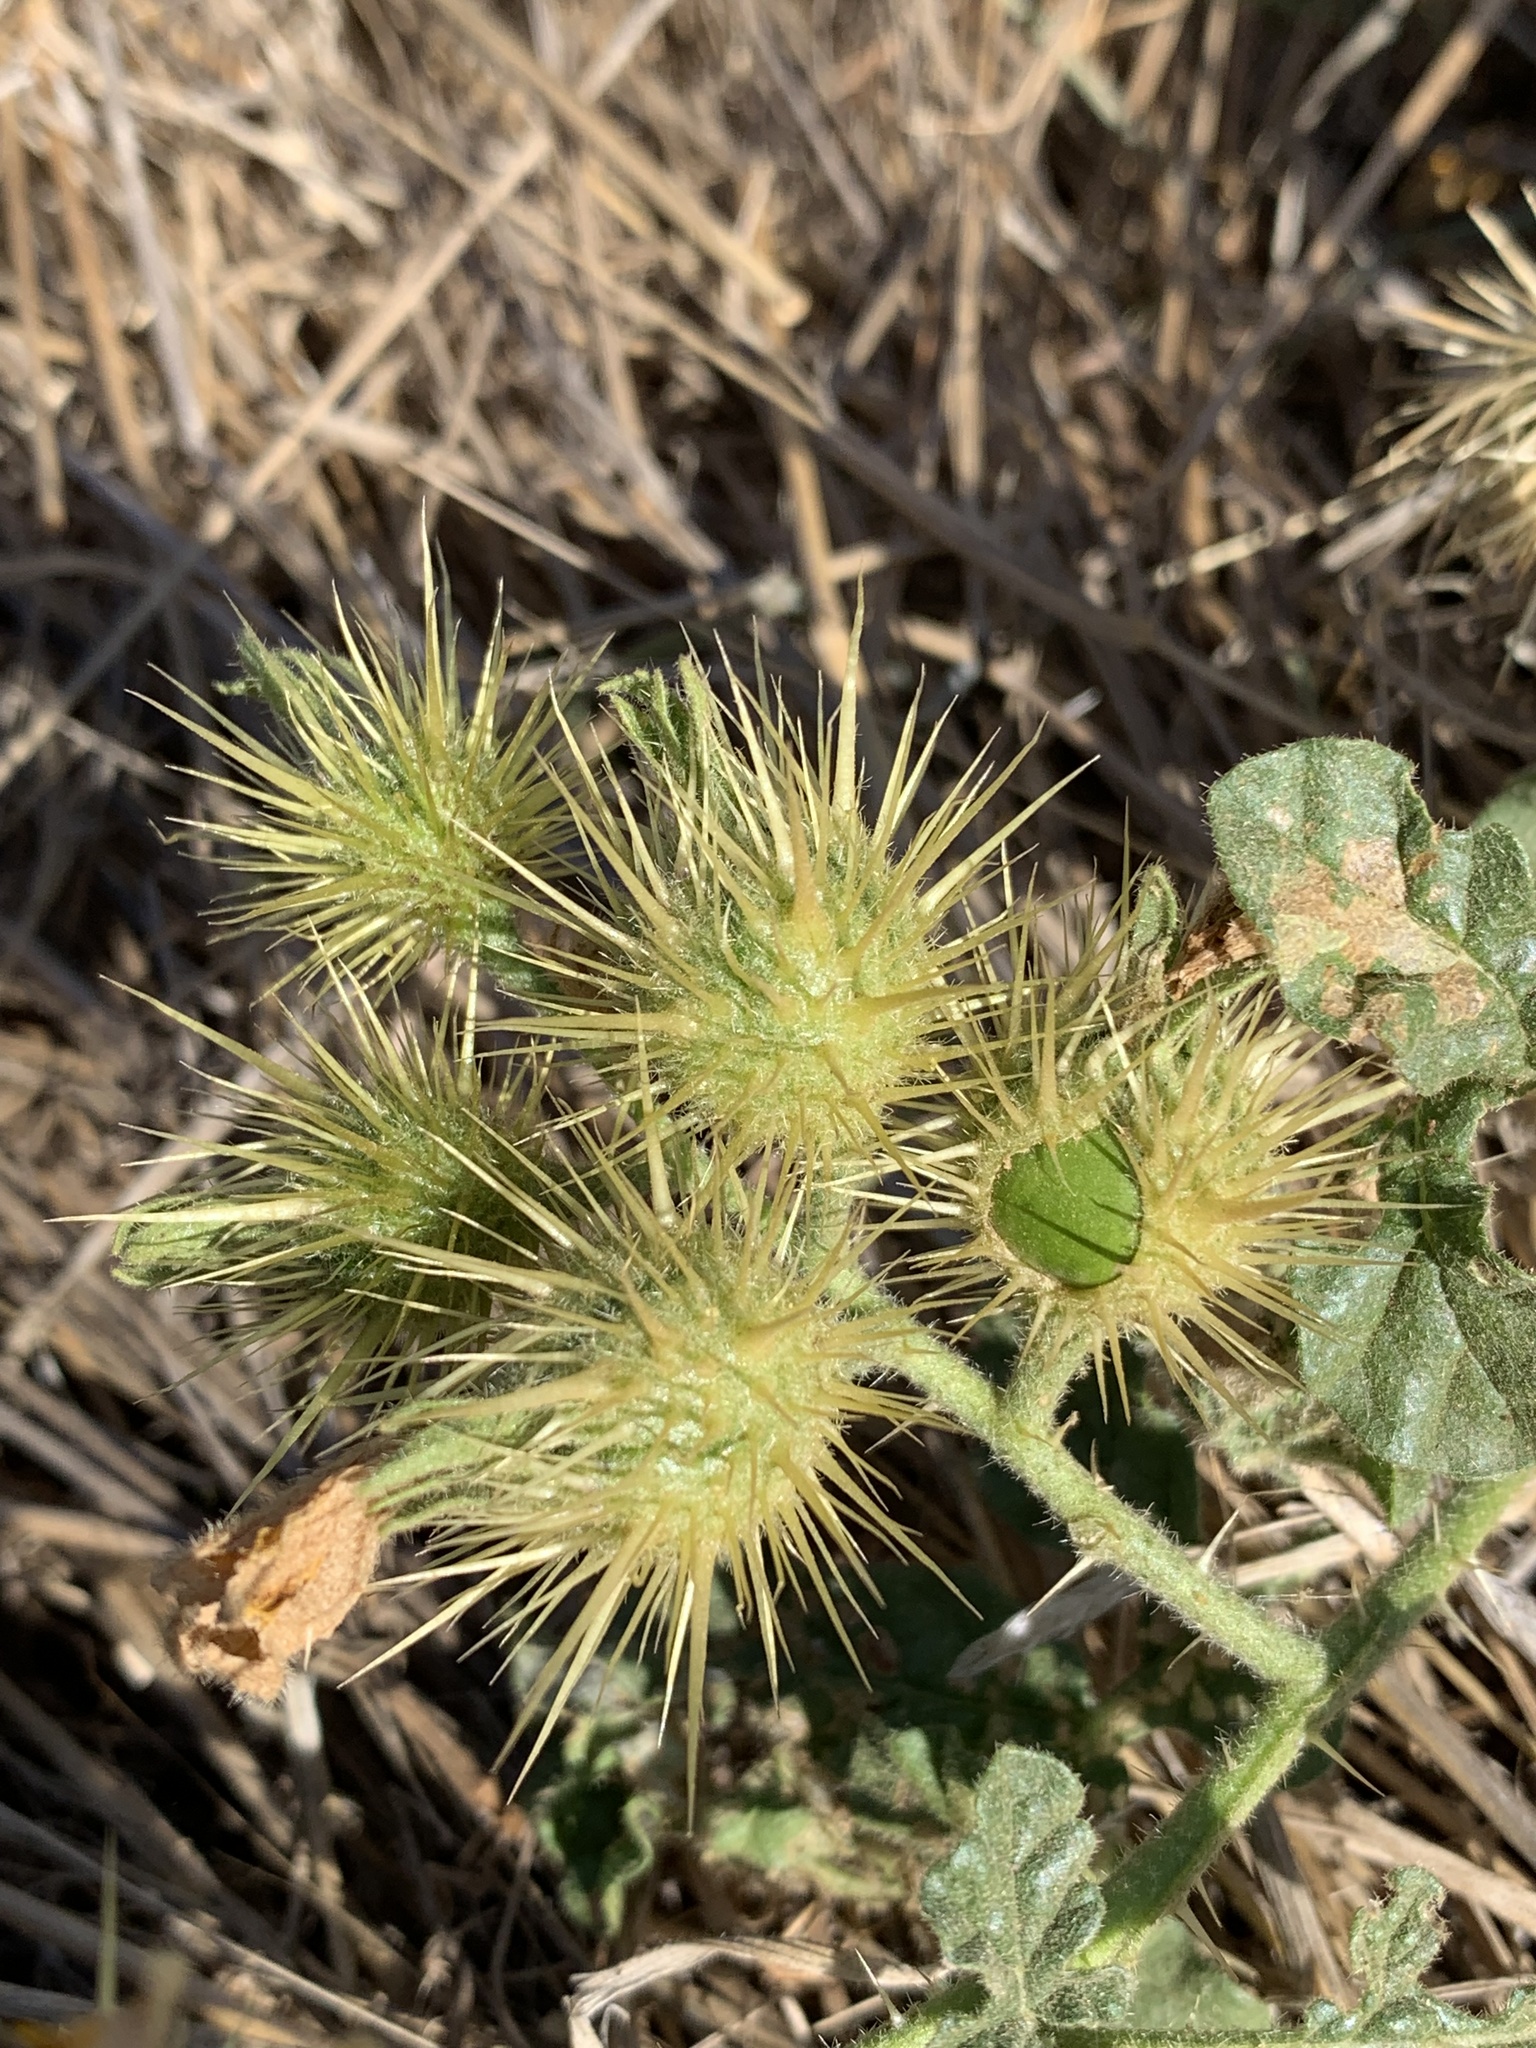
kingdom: Plantae
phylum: Tracheophyta
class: Magnoliopsida
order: Solanales
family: Solanaceae
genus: Solanum
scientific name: Solanum angustifolium
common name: Buffalobur nightshade
